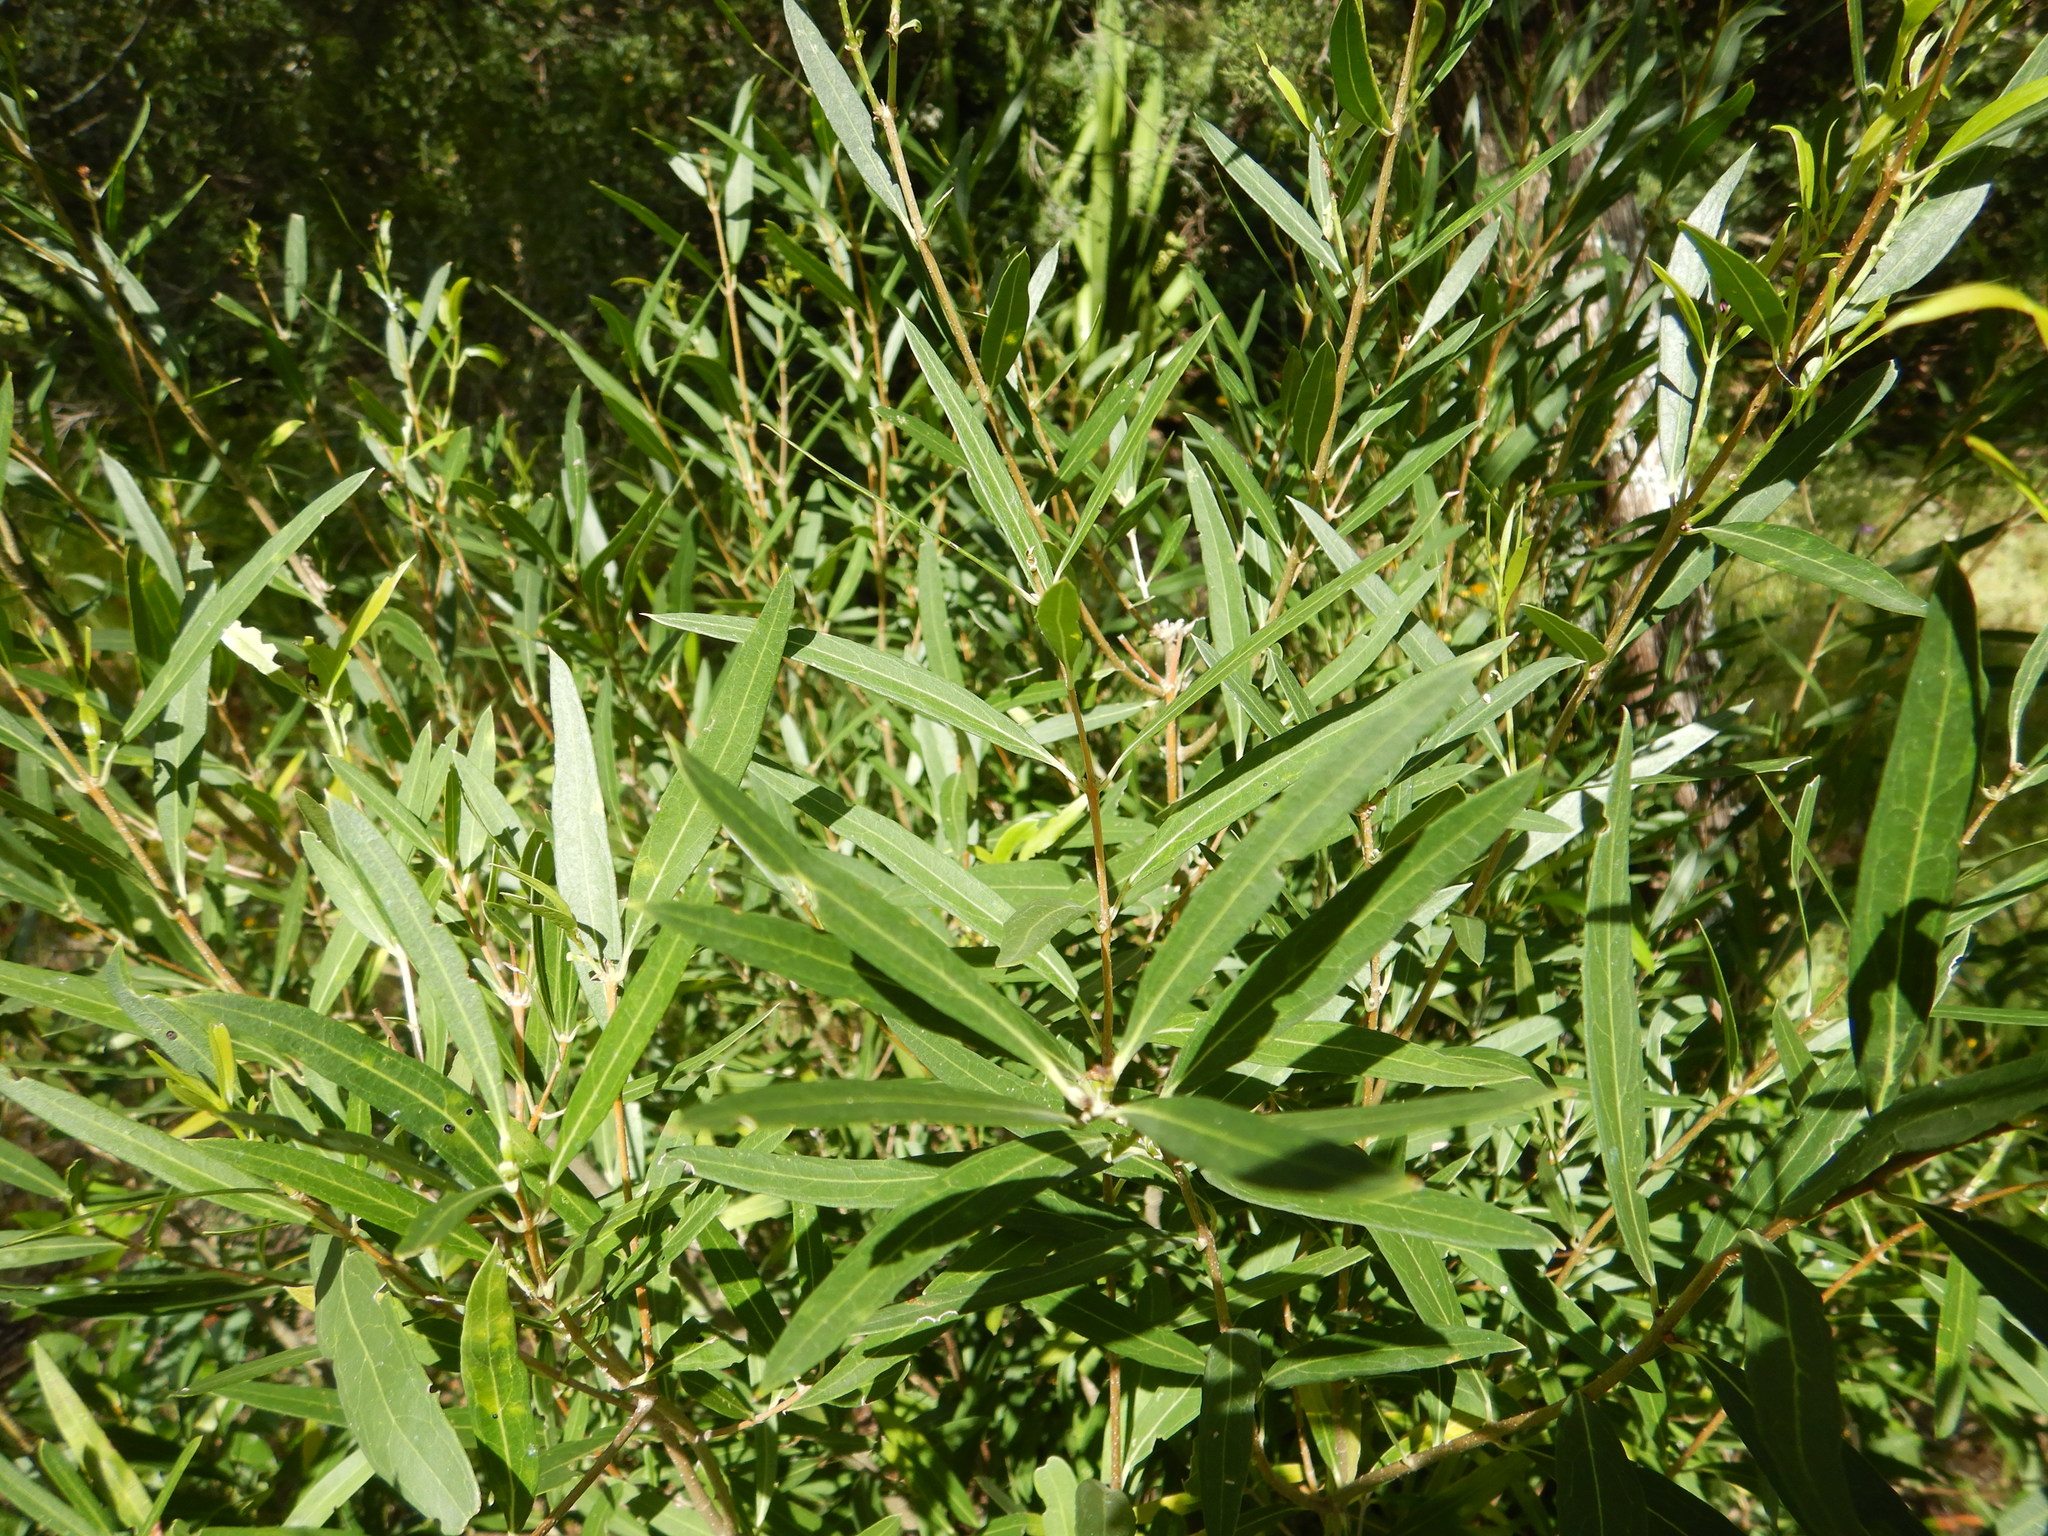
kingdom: Plantae
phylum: Tracheophyta
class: Magnoliopsida
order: Lamiales
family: Oleaceae
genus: Phillyrea
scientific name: Phillyrea angustifolia
